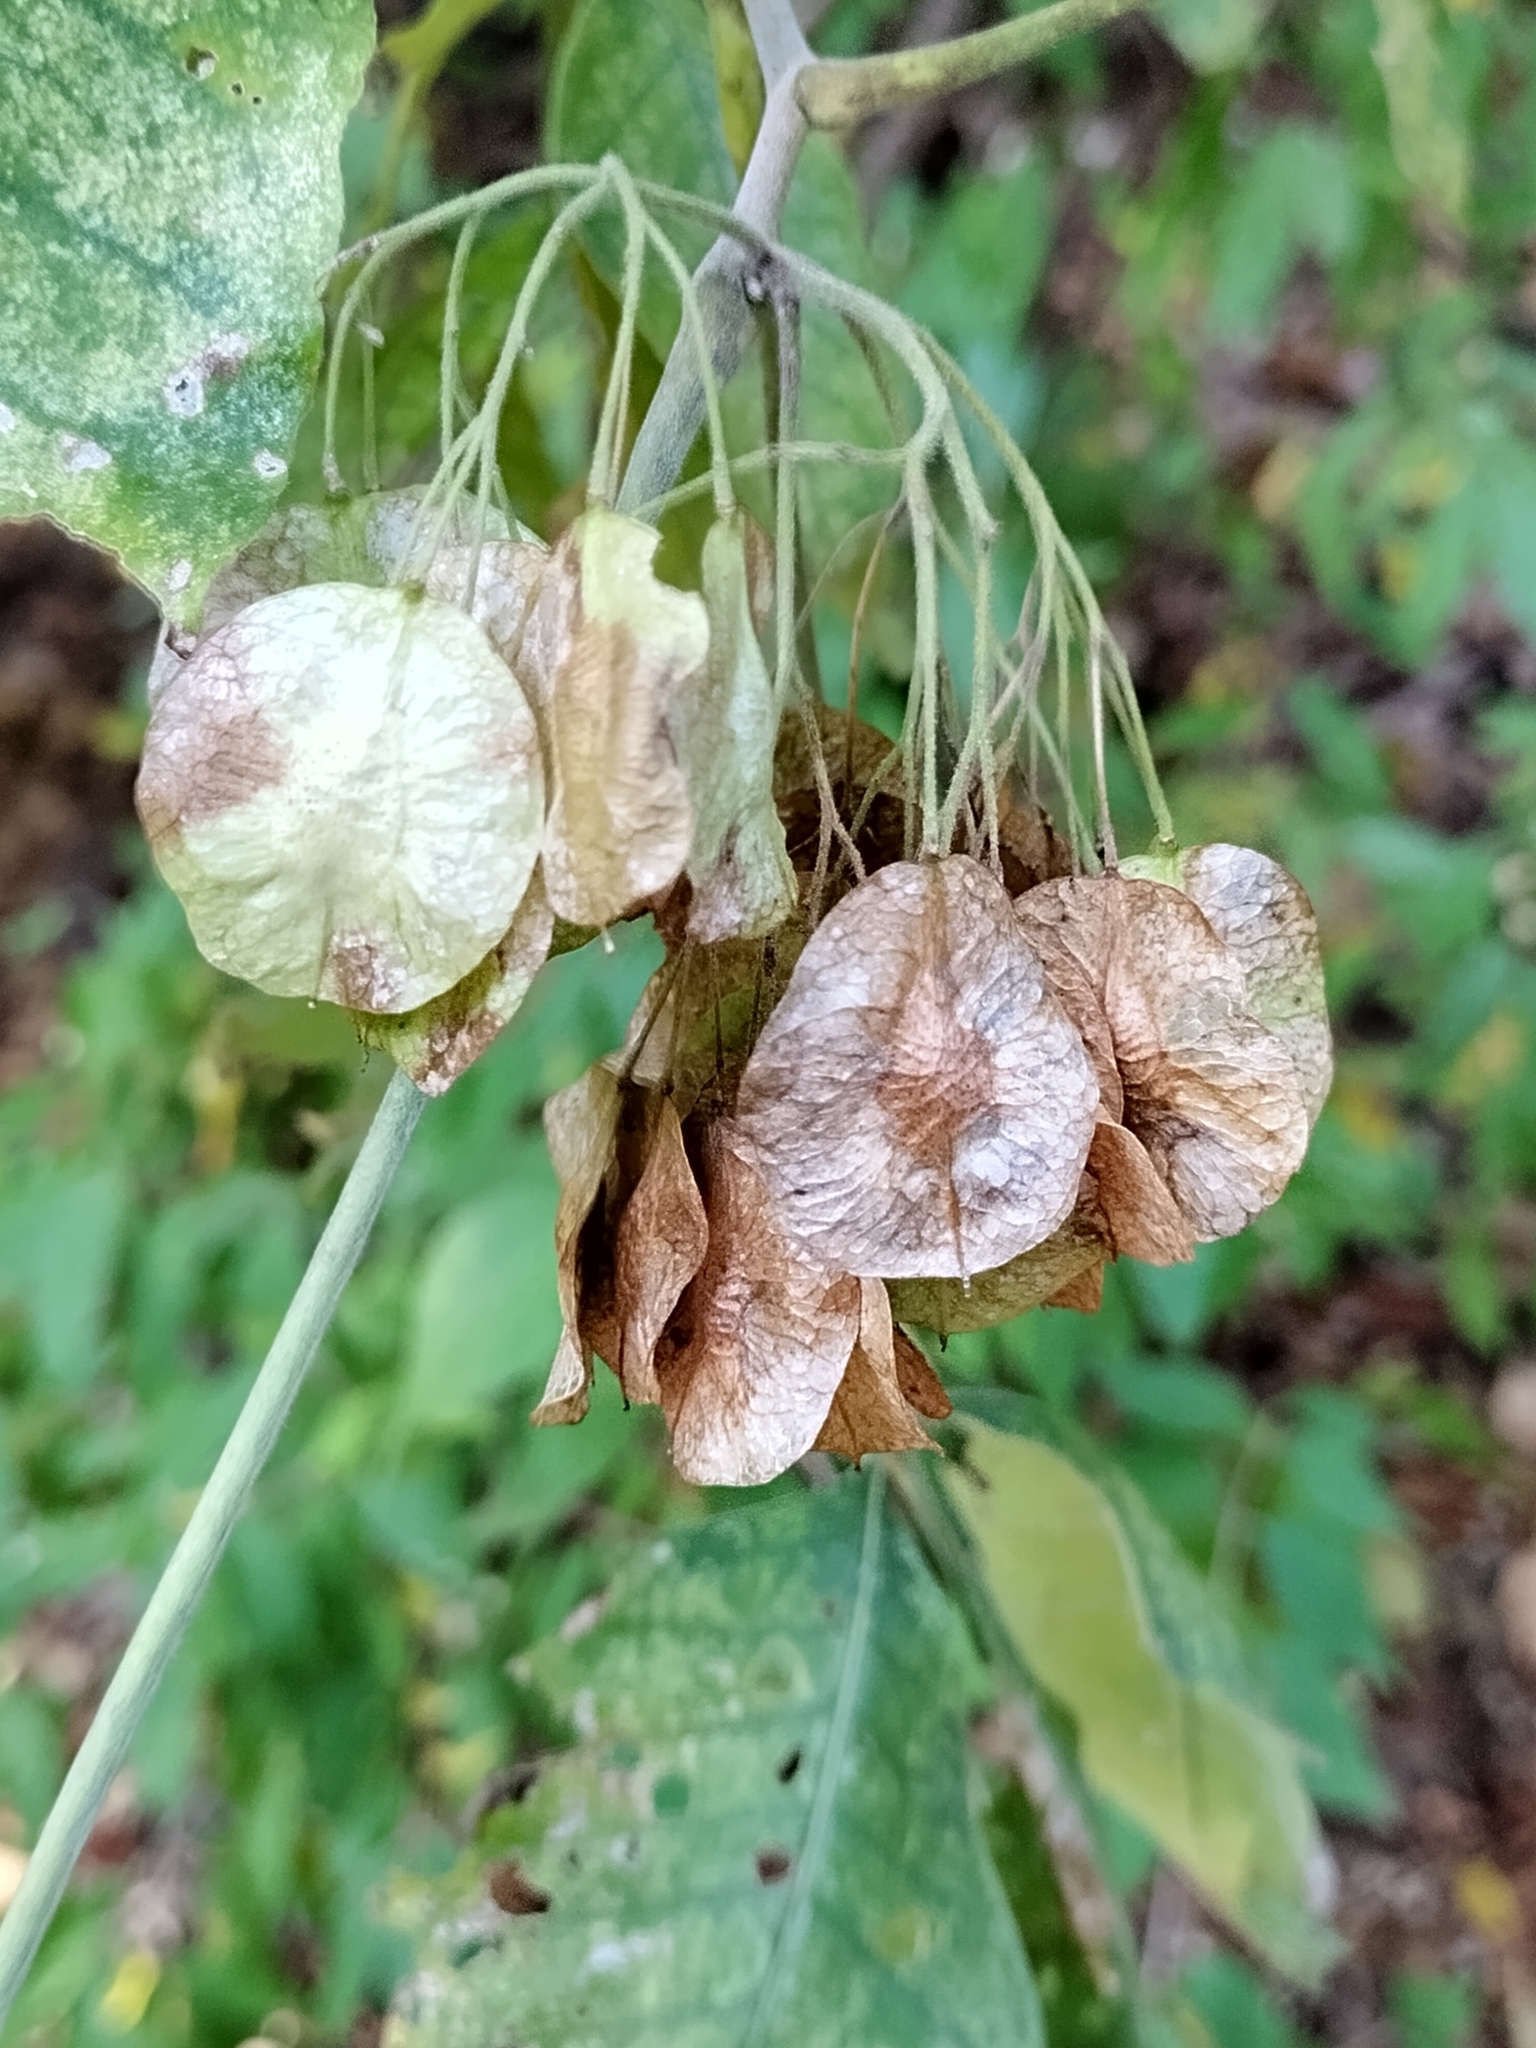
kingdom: Plantae
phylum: Tracheophyta
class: Magnoliopsida
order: Sapindales
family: Rutaceae
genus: Ptelea
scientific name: Ptelea trifoliata
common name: Common hop-tree
